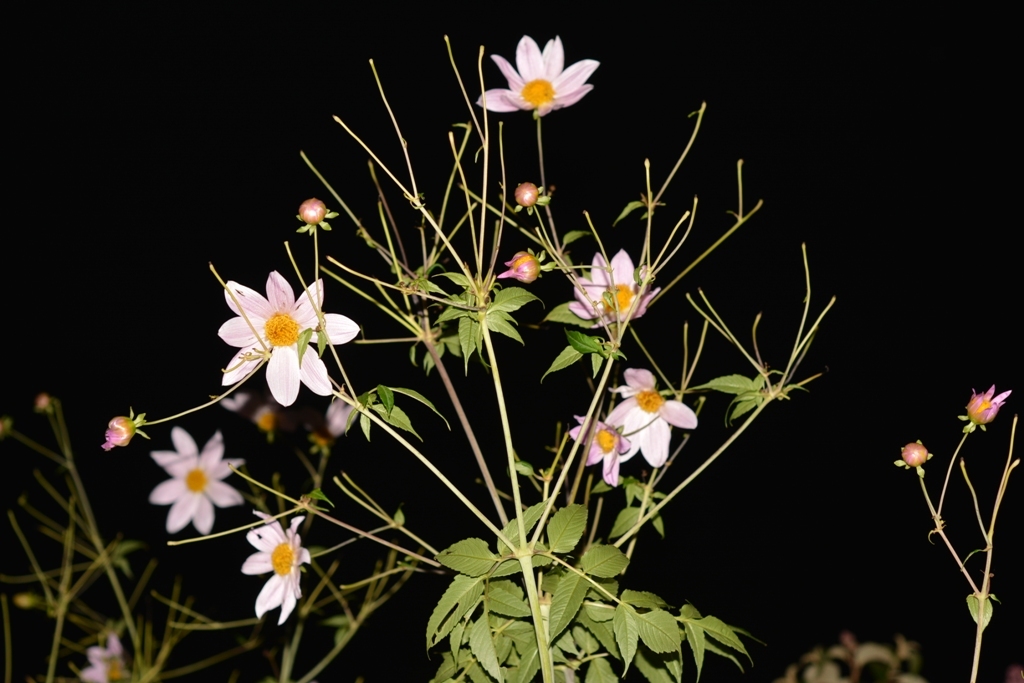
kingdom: Plantae
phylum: Tracheophyta
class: Magnoliopsida
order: Asterales
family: Asteraceae
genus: Dahlia
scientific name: Dahlia imperialis
